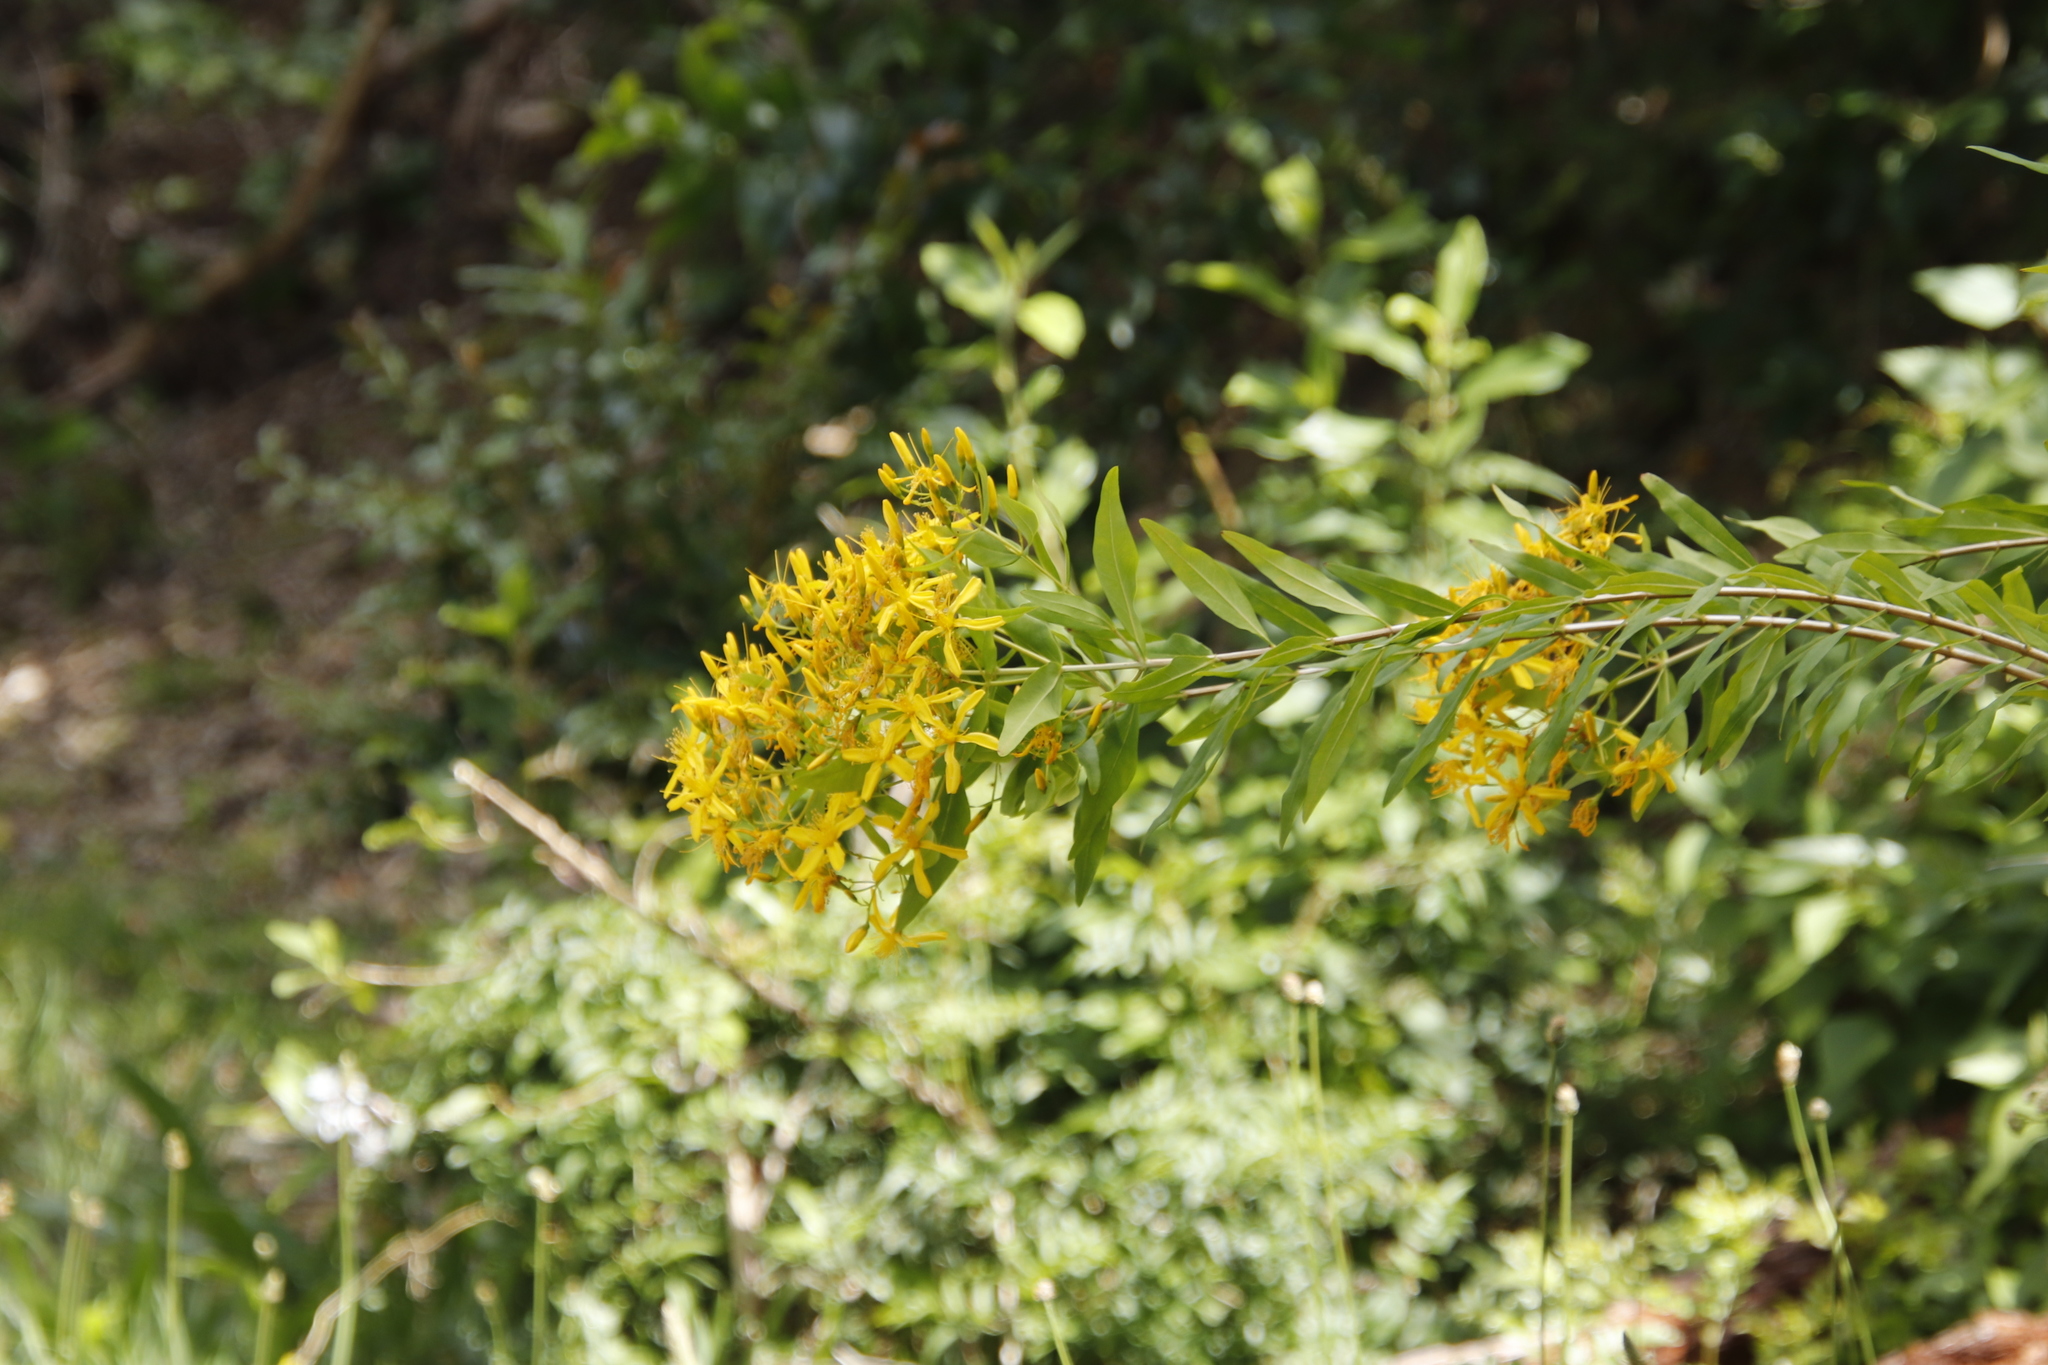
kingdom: Plantae
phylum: Tracheophyta
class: Magnoliopsida
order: Malpighiales
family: Hypericaceae
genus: Hypericum
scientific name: Hypericum canariense
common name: Canary island st. johnswort
